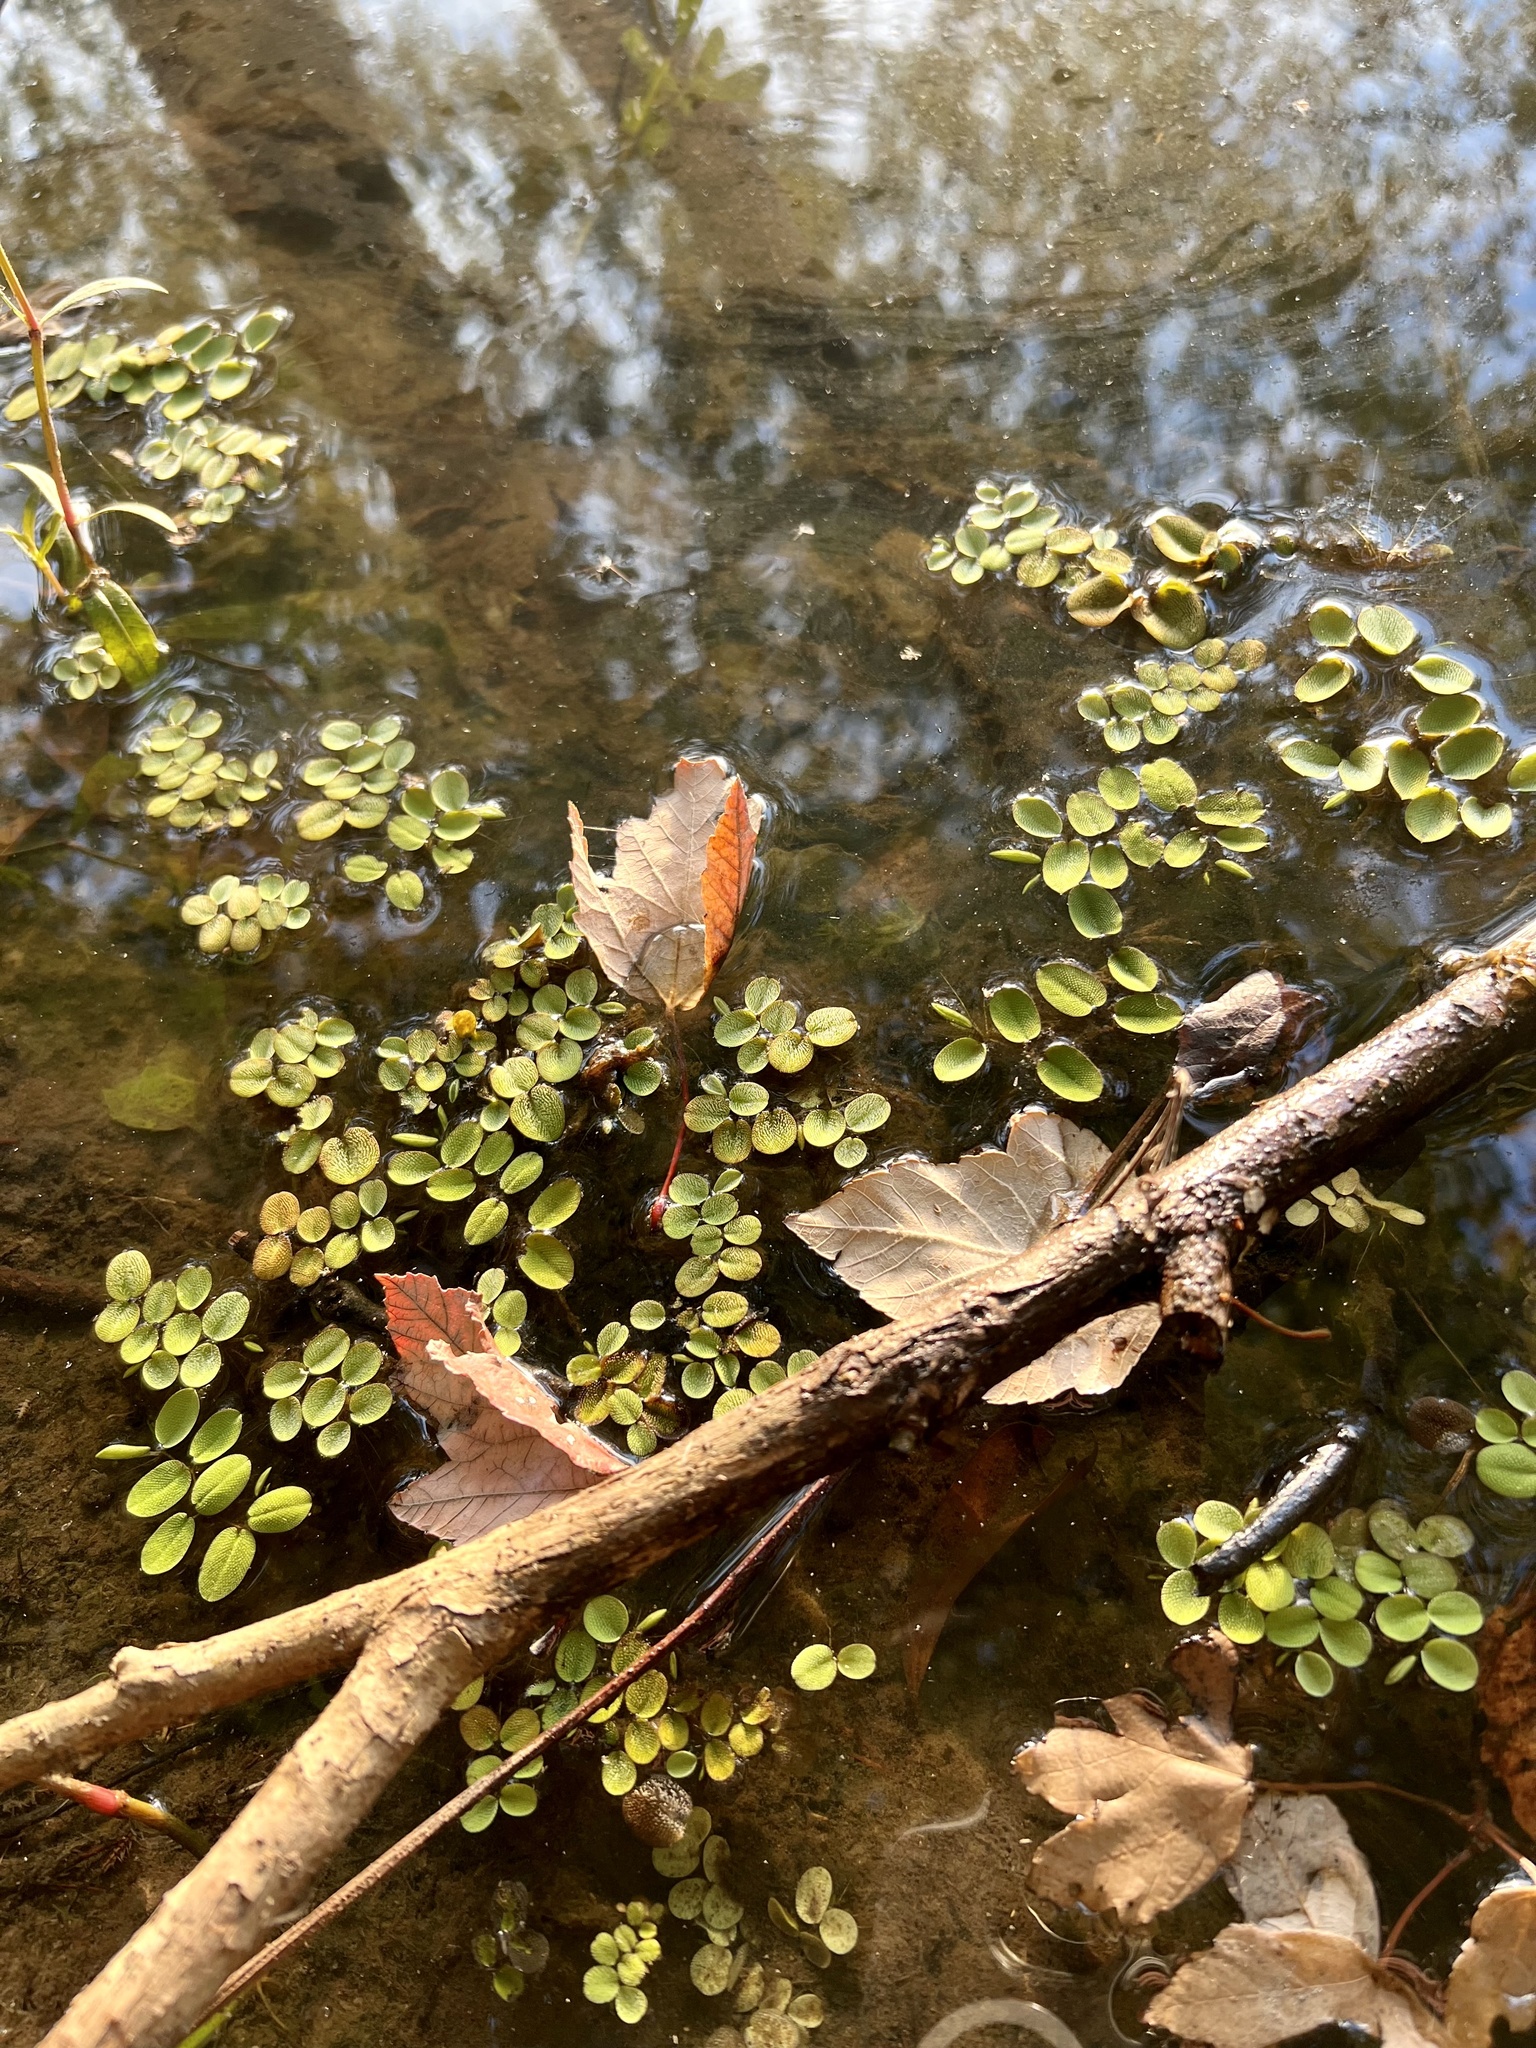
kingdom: Plantae
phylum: Tracheophyta
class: Polypodiopsida
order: Salviniales
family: Salviniaceae
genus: Salvinia
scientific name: Salvinia minima
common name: Water spangles
